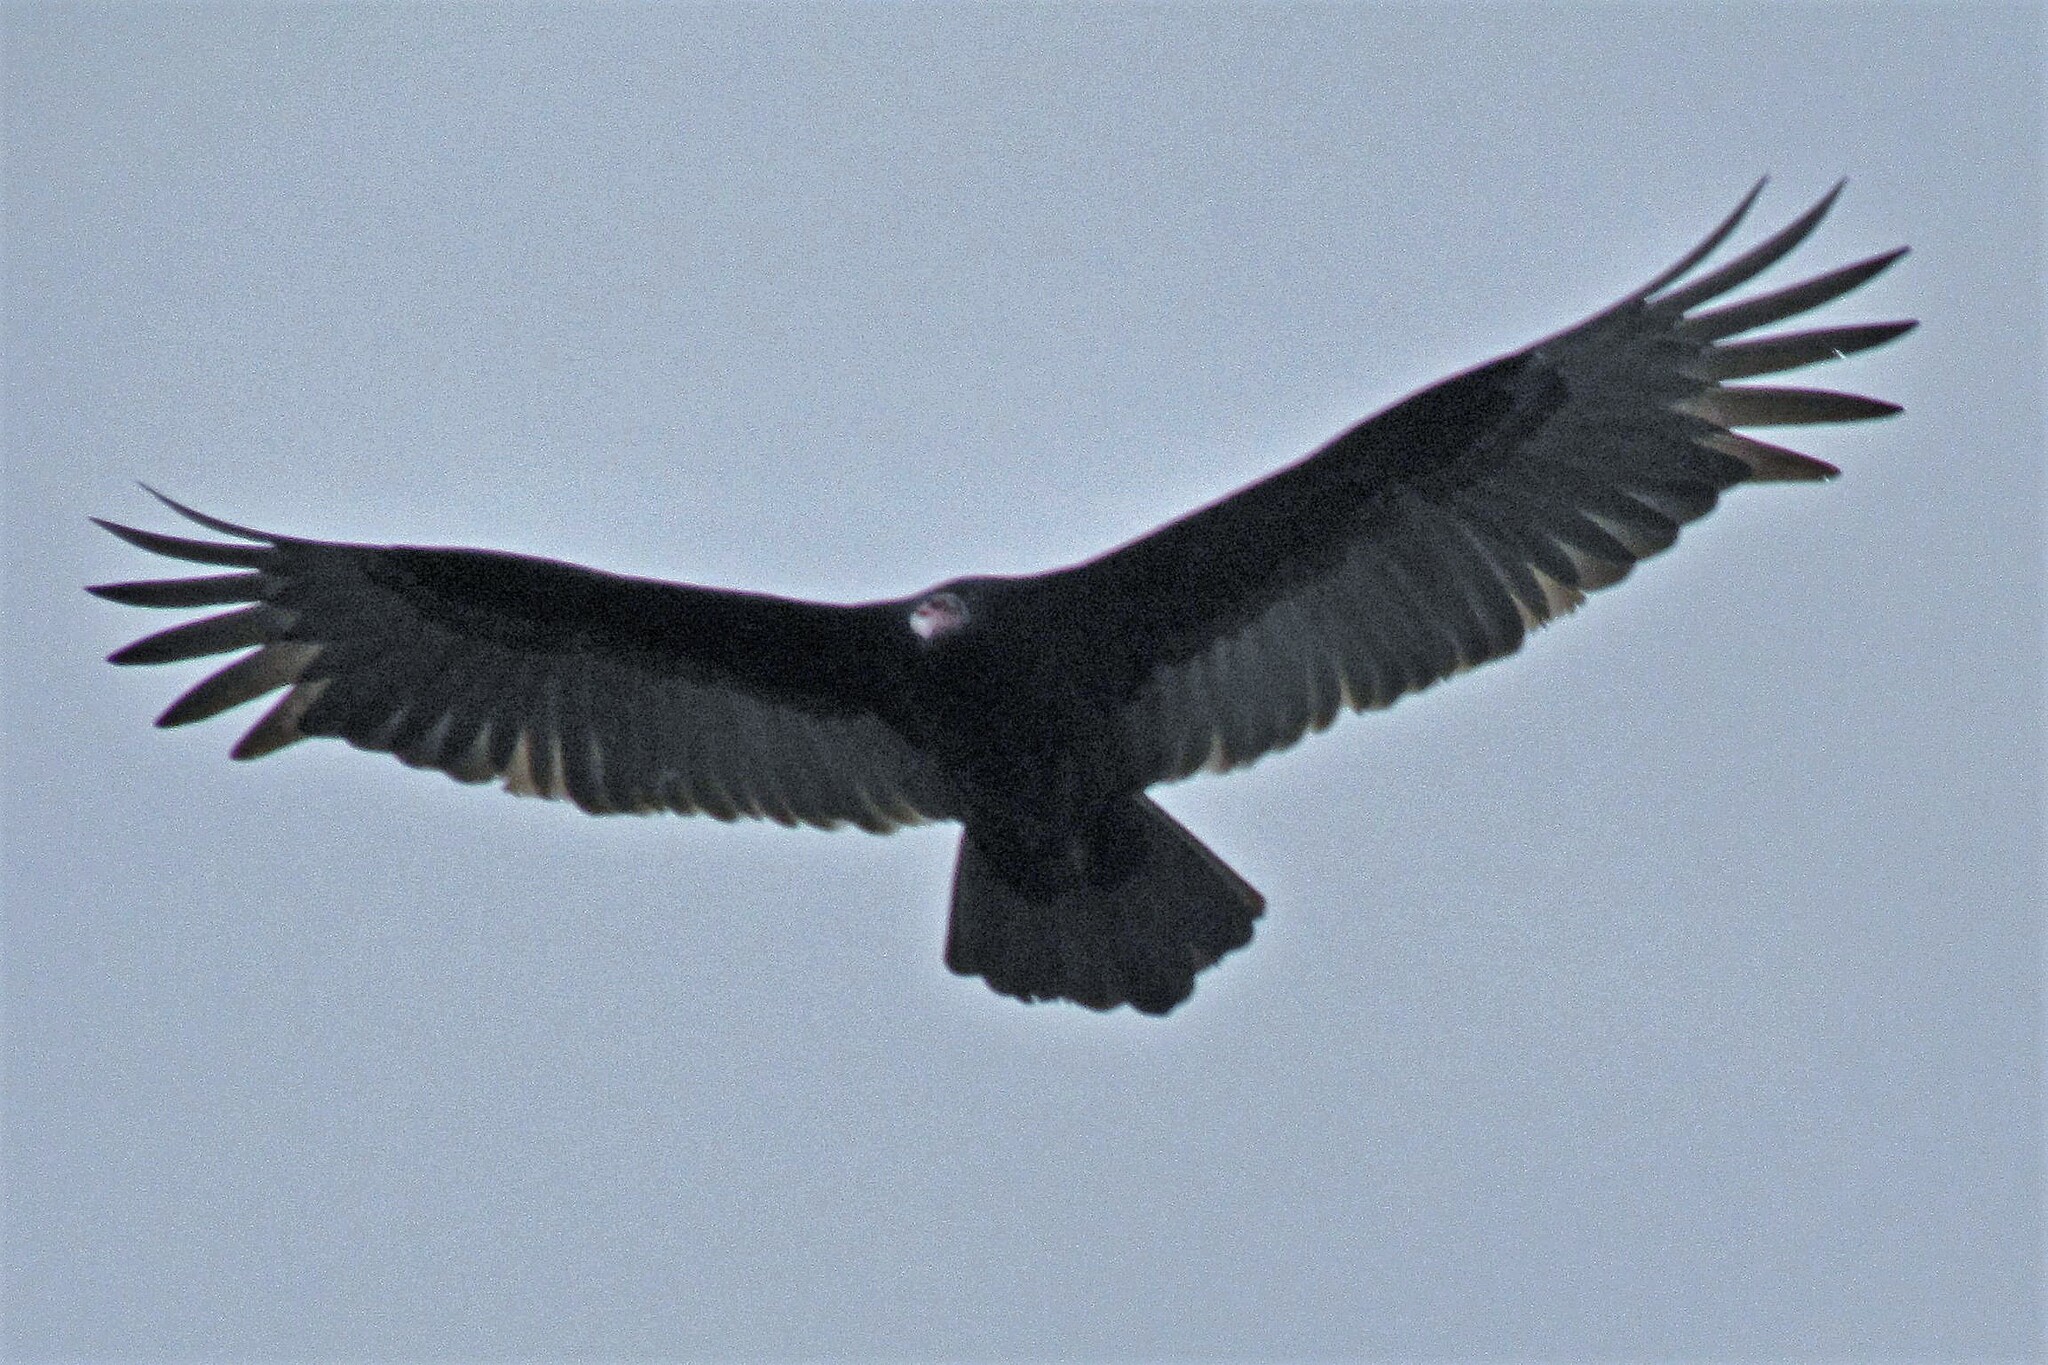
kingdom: Animalia
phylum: Chordata
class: Aves
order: Accipitriformes
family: Cathartidae
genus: Cathartes
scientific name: Cathartes aura
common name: Turkey vulture
